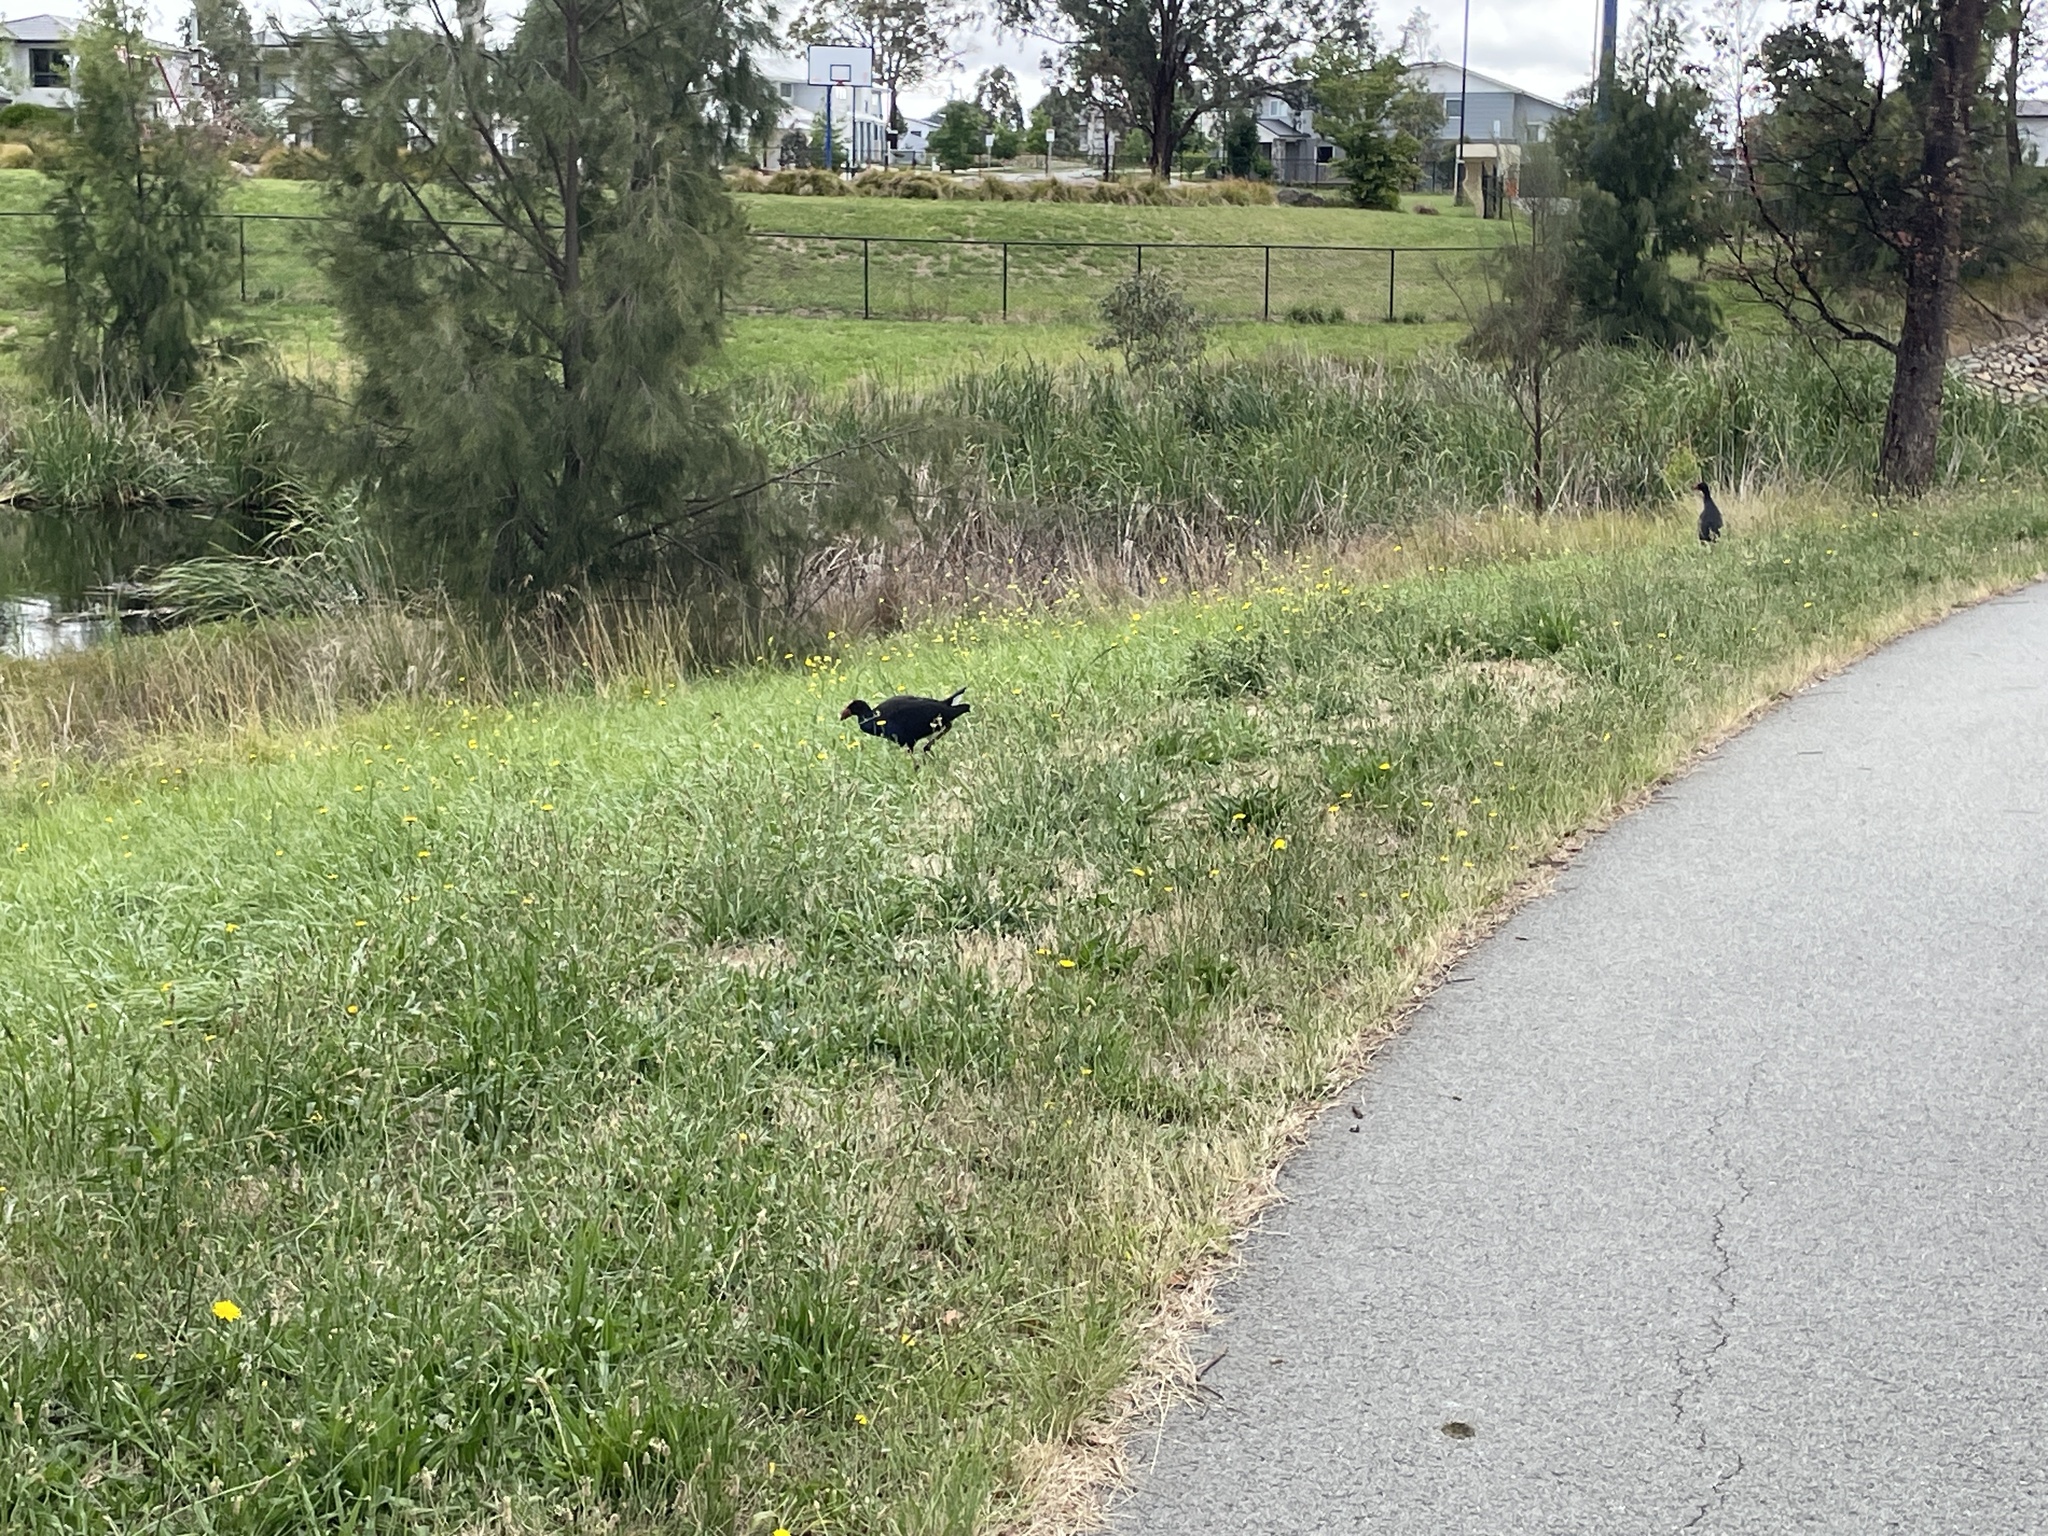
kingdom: Animalia
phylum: Chordata
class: Aves
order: Gruiformes
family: Rallidae
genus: Porphyrio
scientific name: Porphyrio melanotus
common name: Australasian swamphen
